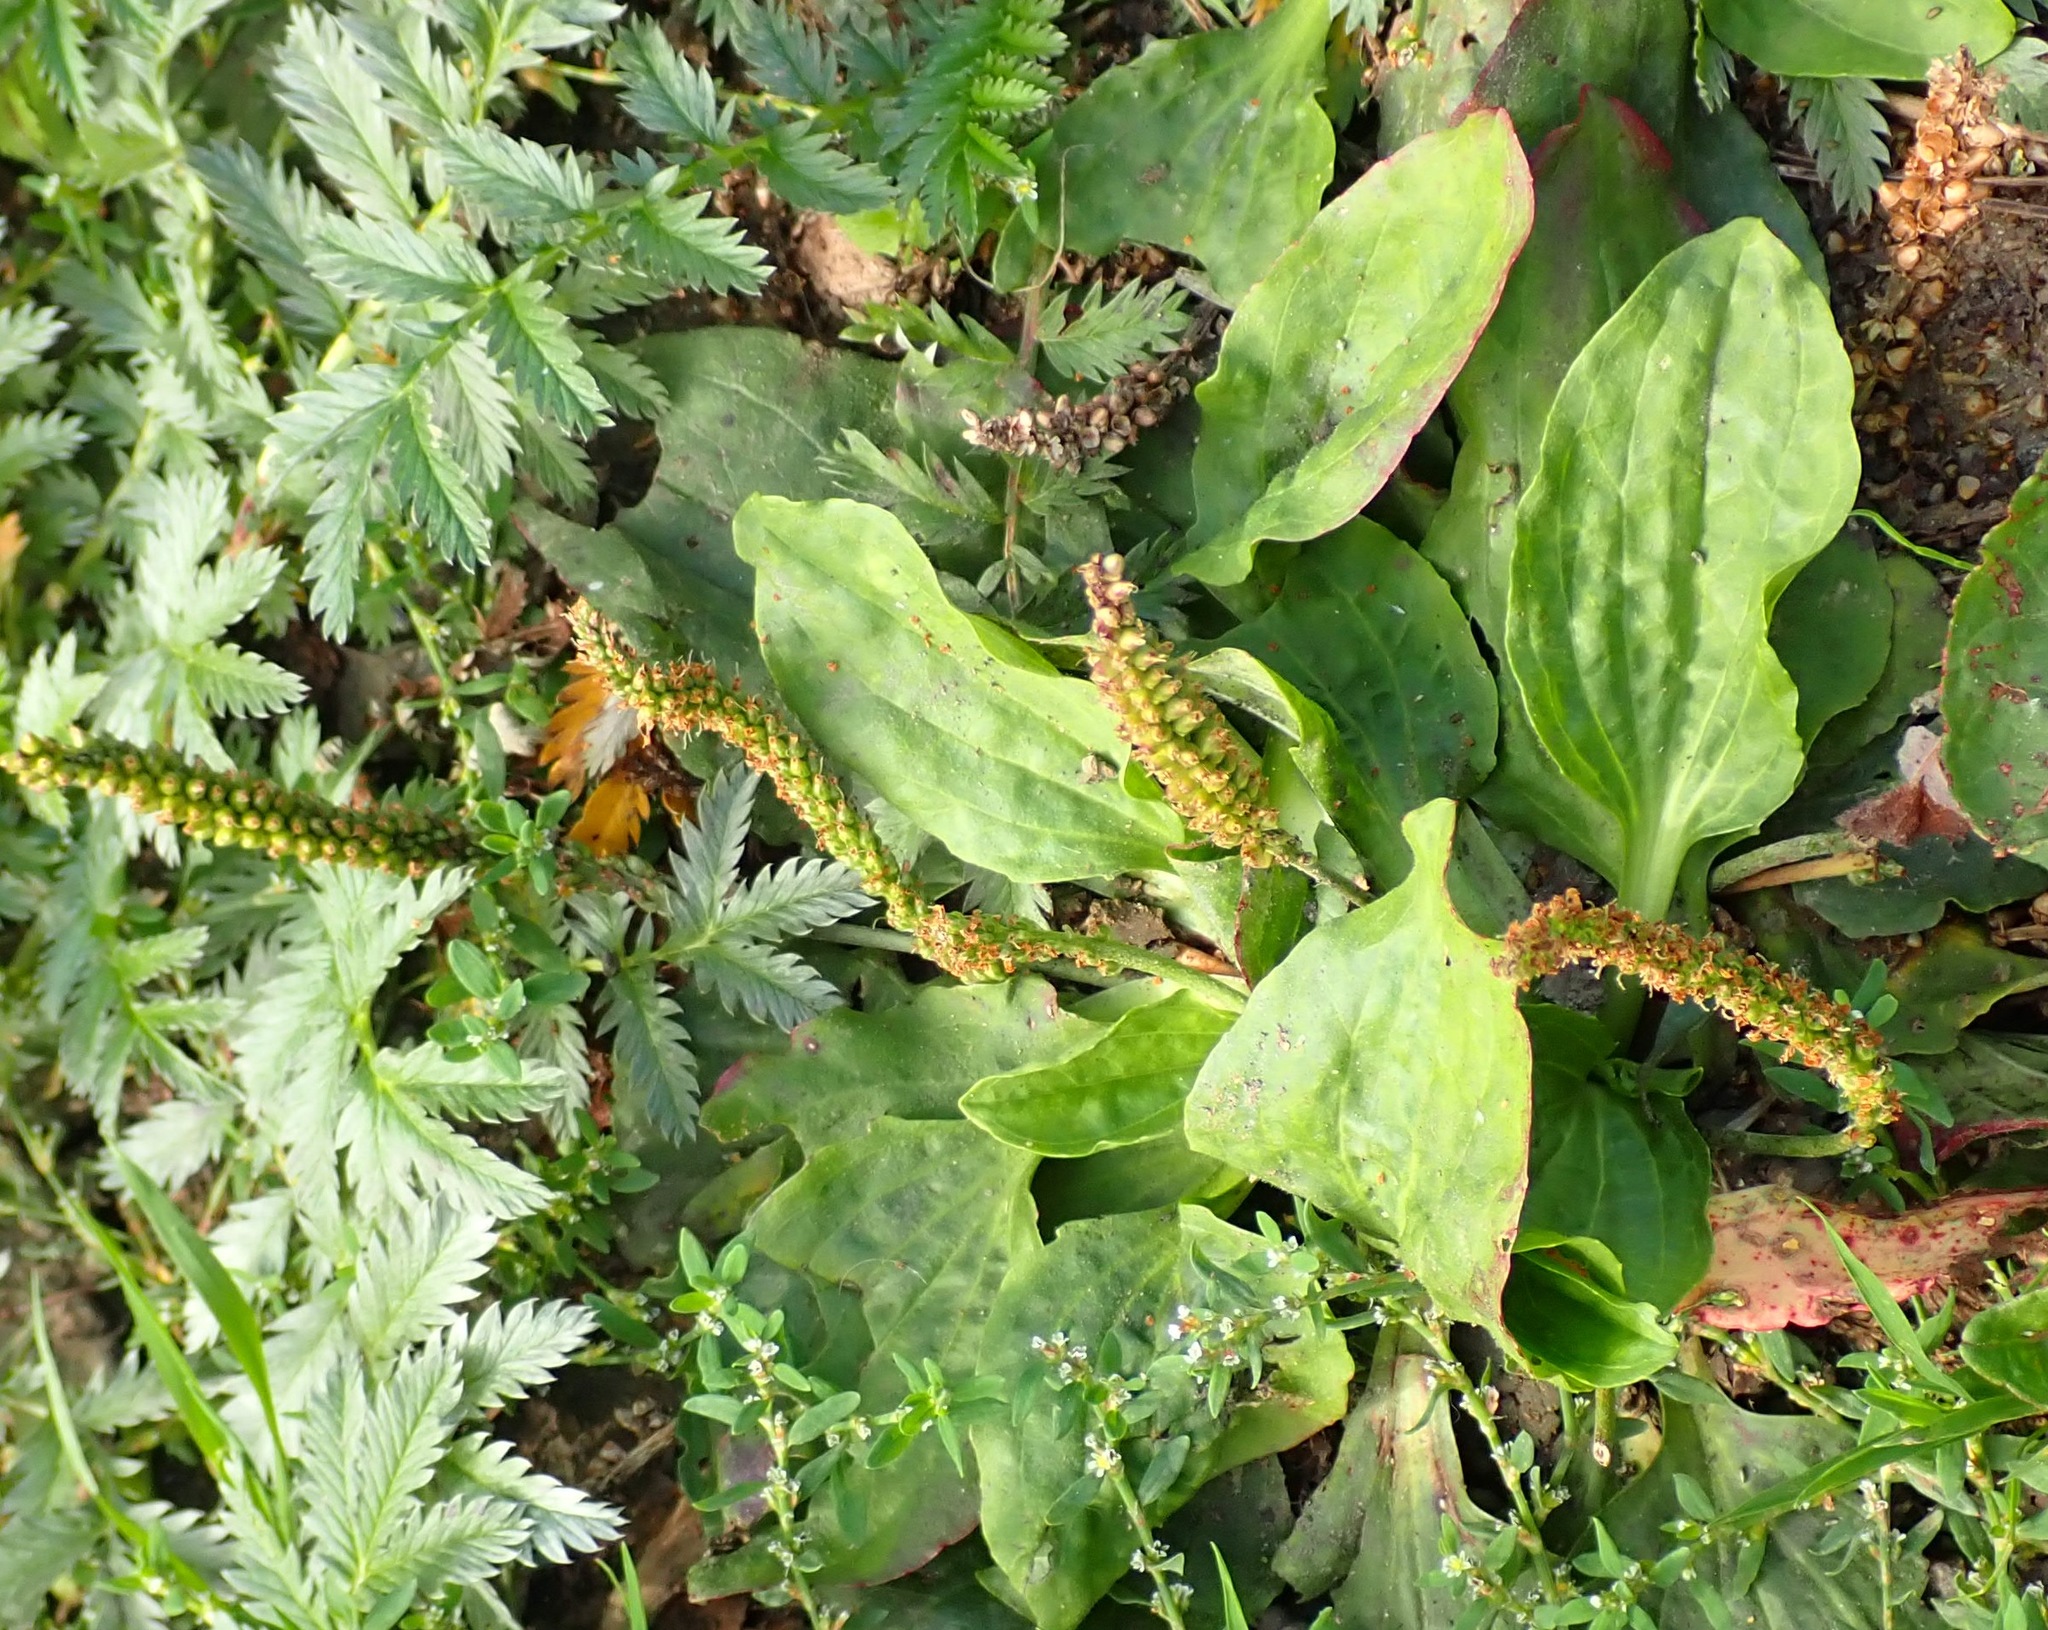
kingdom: Plantae
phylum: Tracheophyta
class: Magnoliopsida
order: Lamiales
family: Plantaginaceae
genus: Plantago
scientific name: Plantago major
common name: Common plantain
